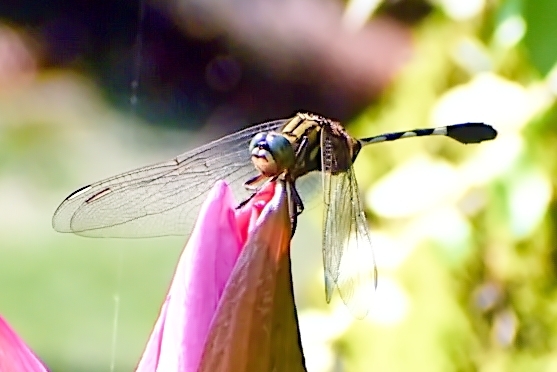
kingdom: Animalia
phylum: Arthropoda
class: Insecta
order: Odonata
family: Libellulidae
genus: Orthetrum
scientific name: Orthetrum sabina
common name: Slender skimmer
